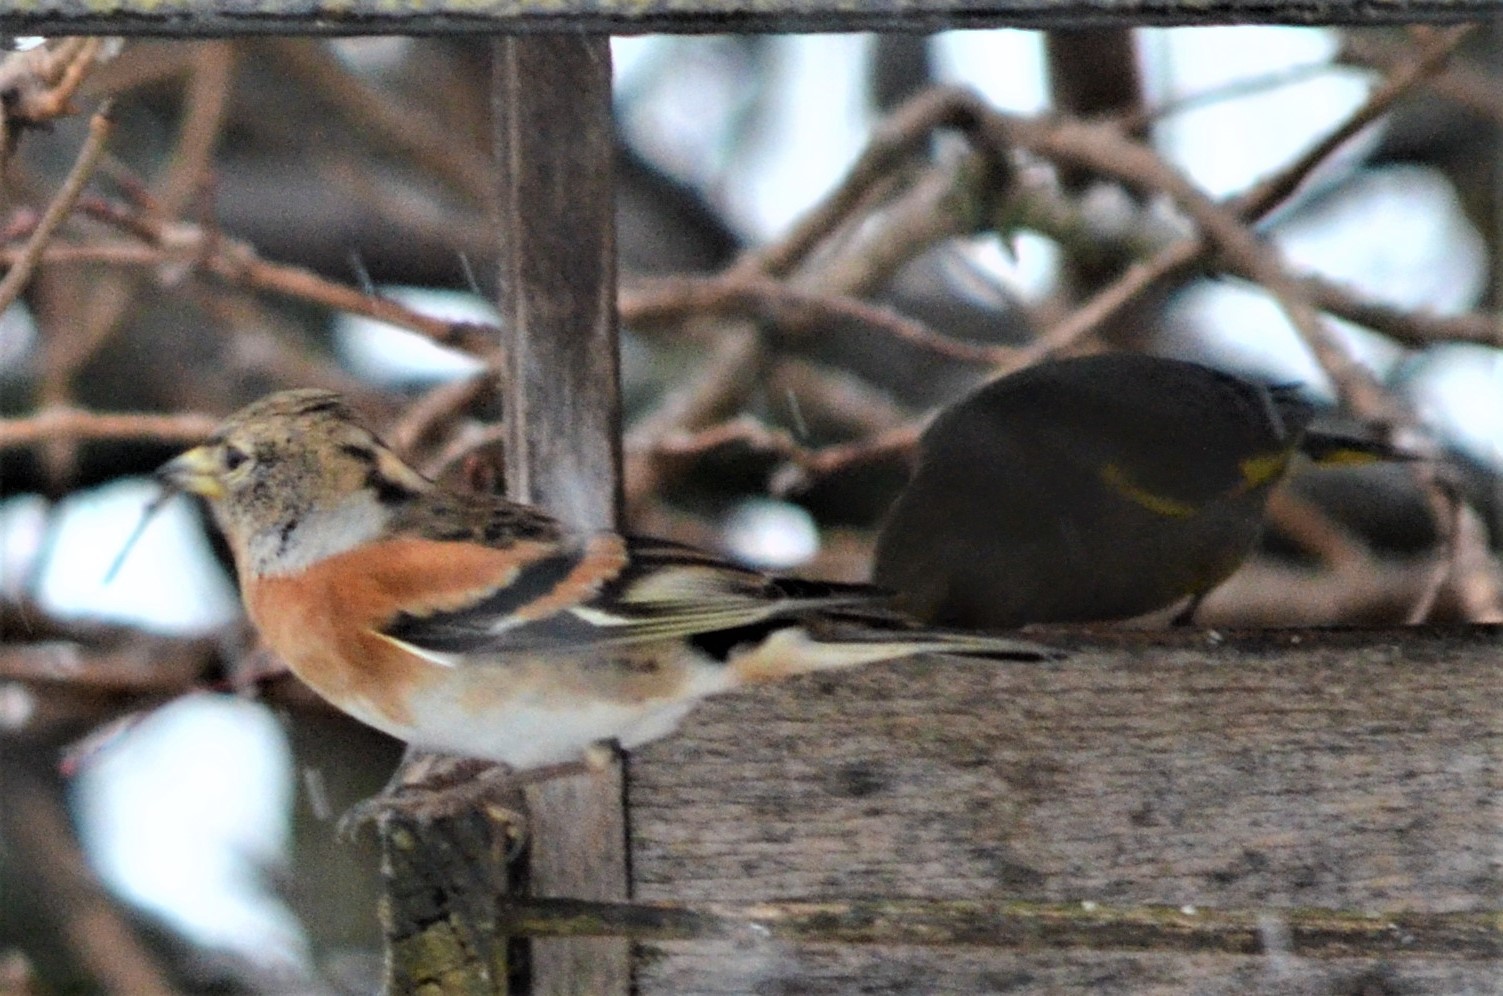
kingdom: Animalia
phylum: Chordata
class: Aves
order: Passeriformes
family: Fringillidae
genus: Fringilla
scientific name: Fringilla montifringilla
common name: Brambling
